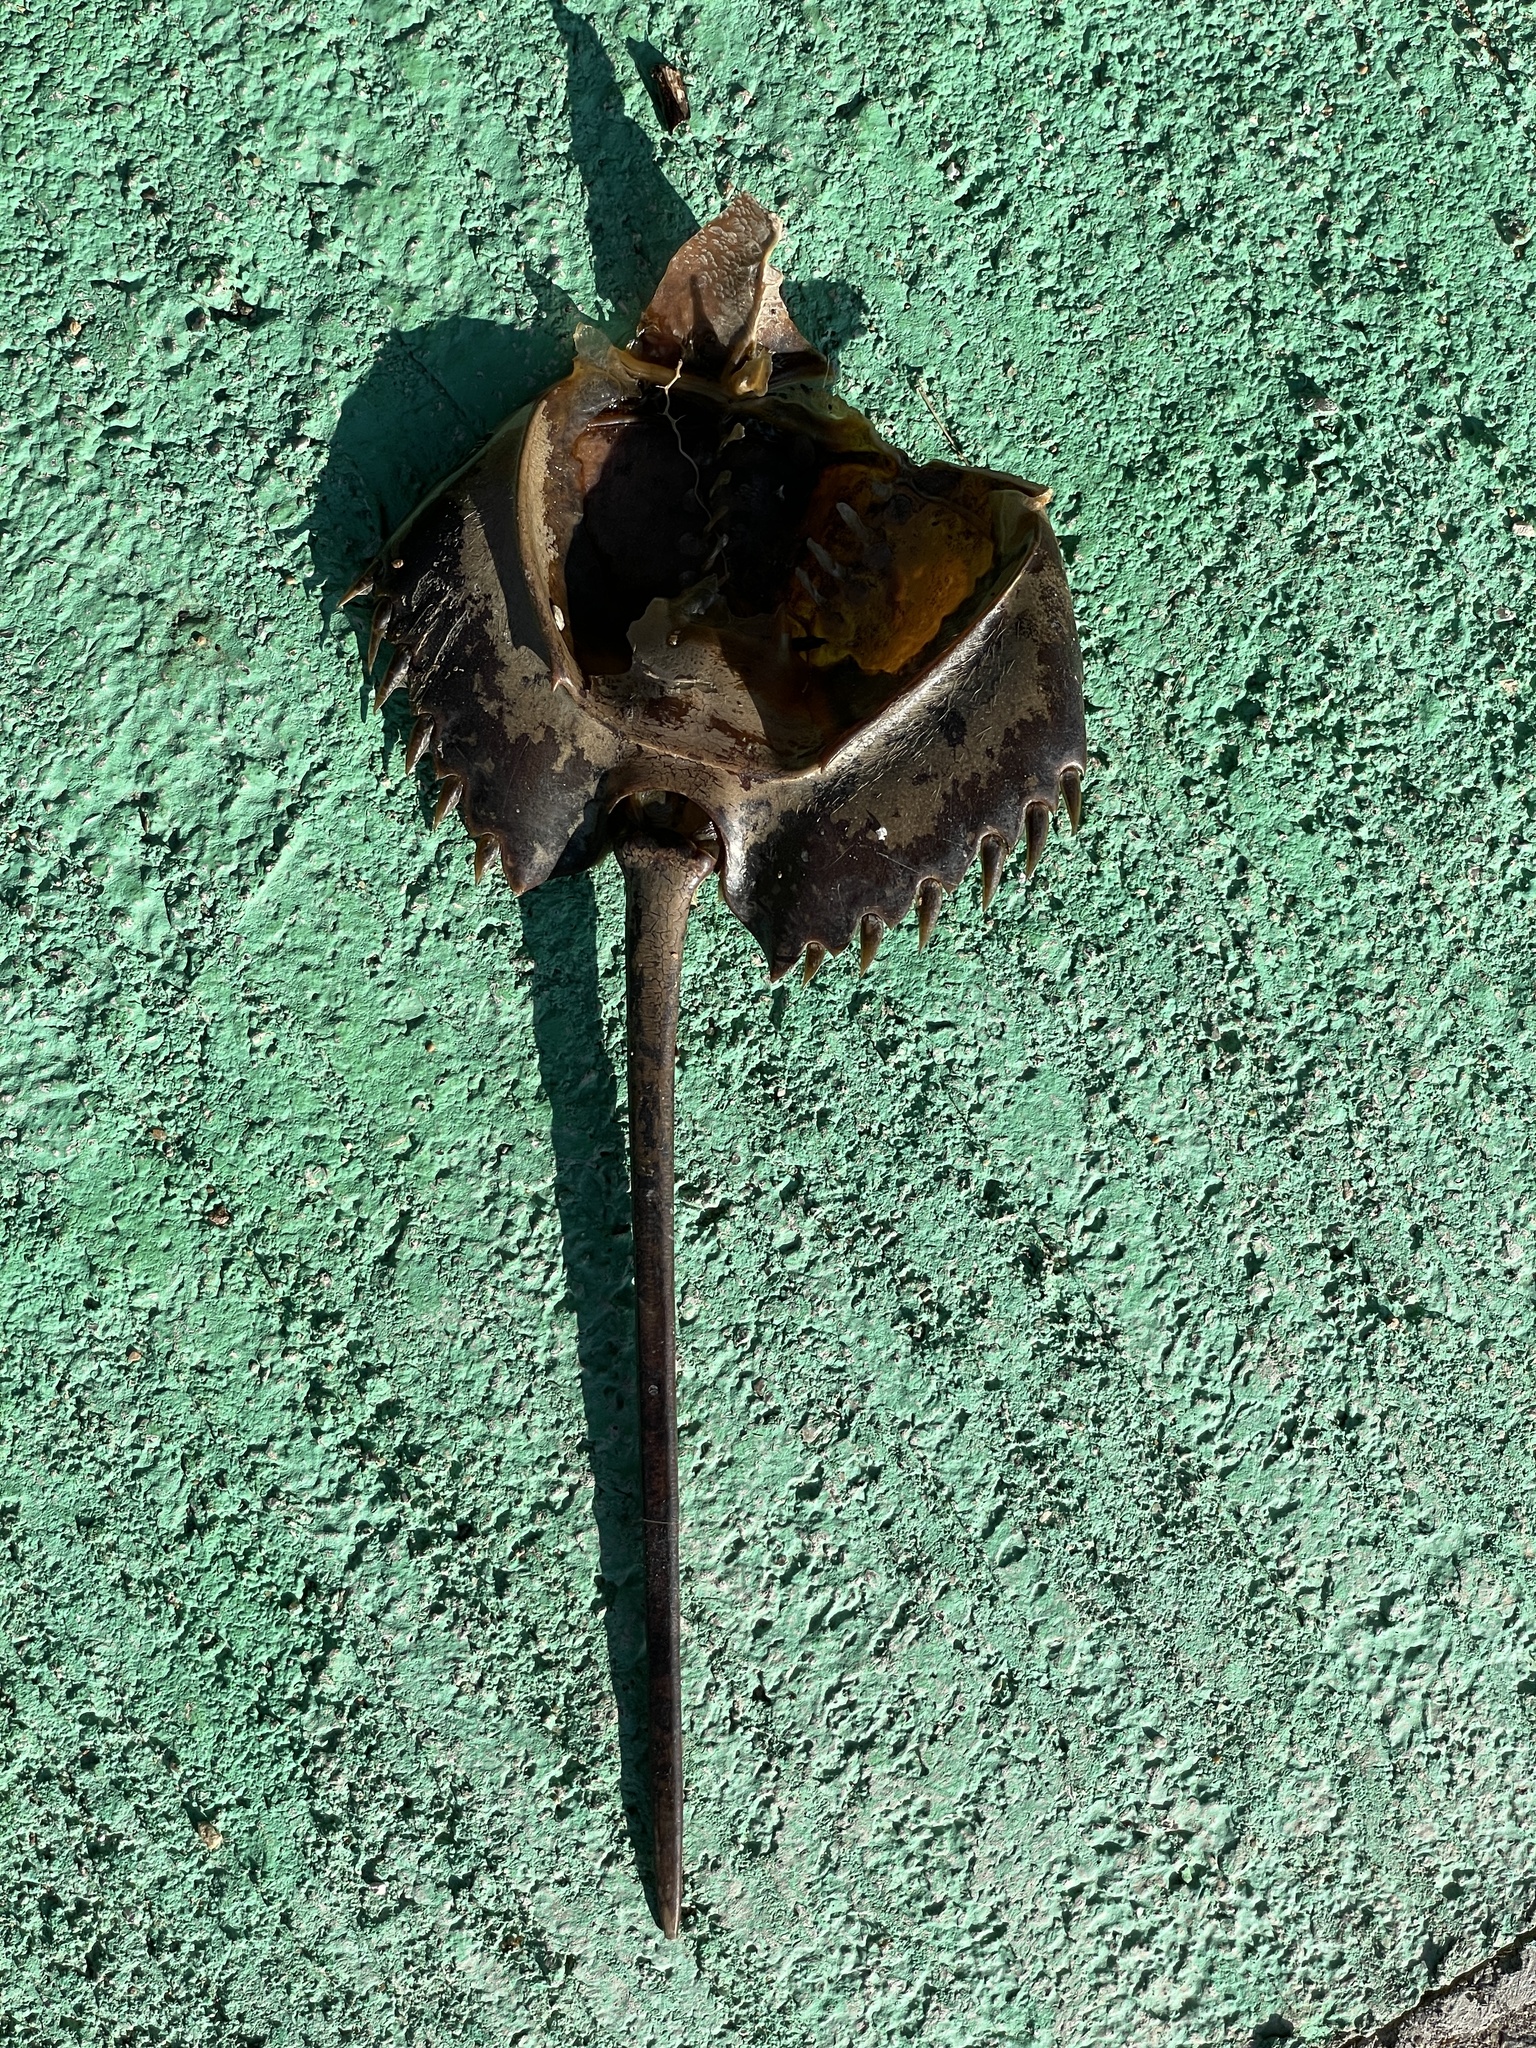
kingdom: Animalia
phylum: Arthropoda
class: Merostomata
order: Xiphosurida
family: Limulidae
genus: Carcinoscorpius
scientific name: Carcinoscorpius rotundicauda
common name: Horseshoe crab
